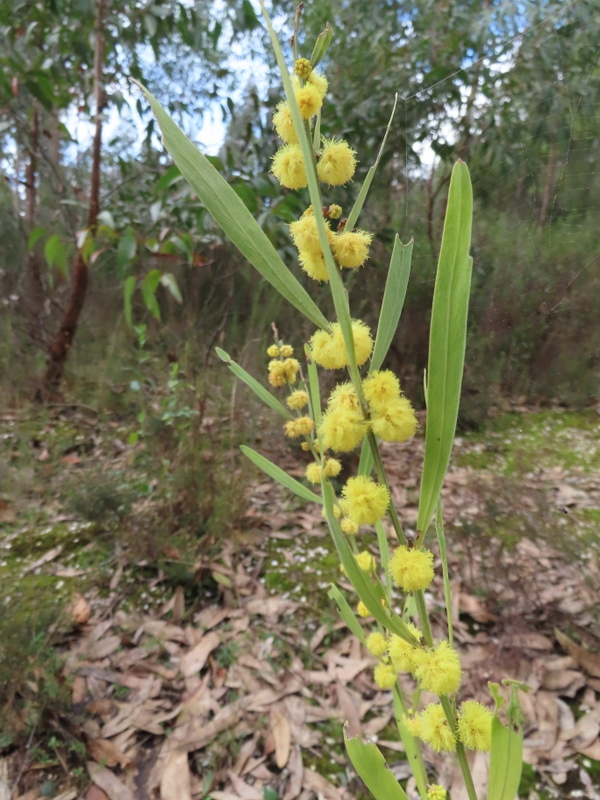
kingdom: Plantae
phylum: Tracheophyta
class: Magnoliopsida
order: Fabales
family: Fabaceae
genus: Acacia
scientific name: Acacia stricta
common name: Hop wattle
